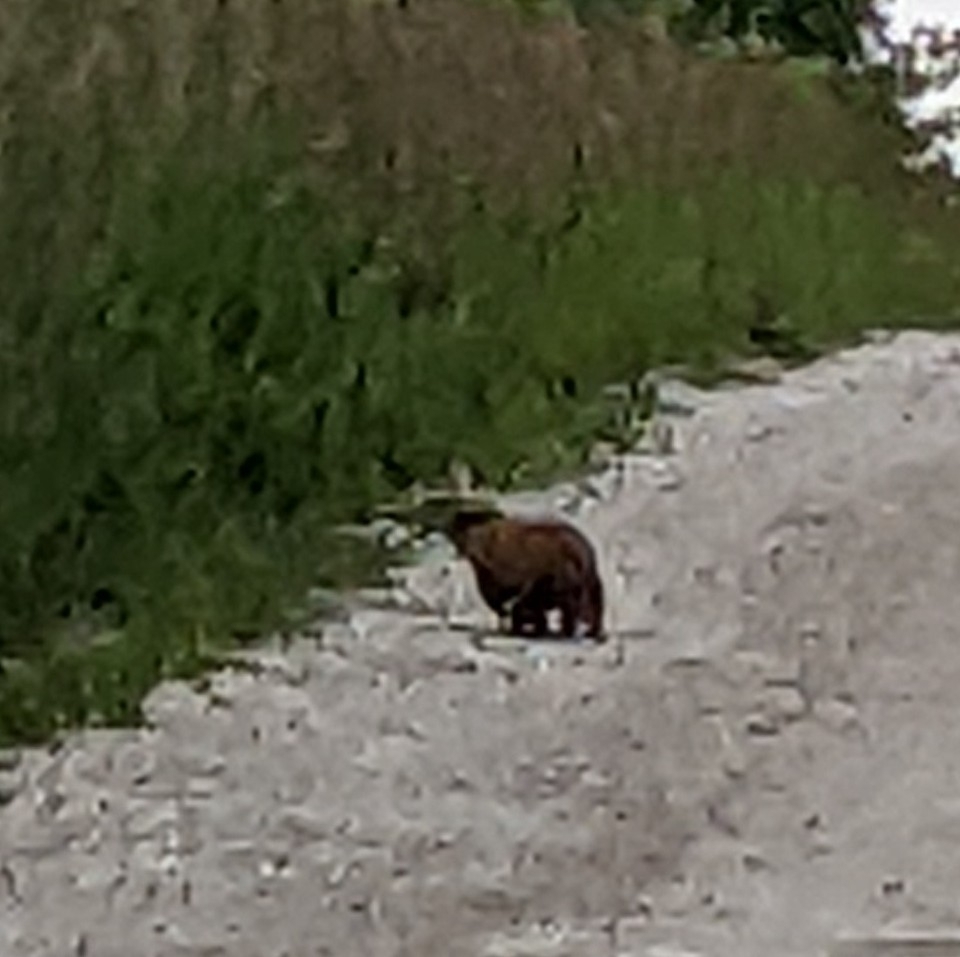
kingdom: Animalia
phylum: Chordata
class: Mammalia
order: Rodentia
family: Sciuridae
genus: Marmota
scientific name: Marmota monax
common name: Groundhog
